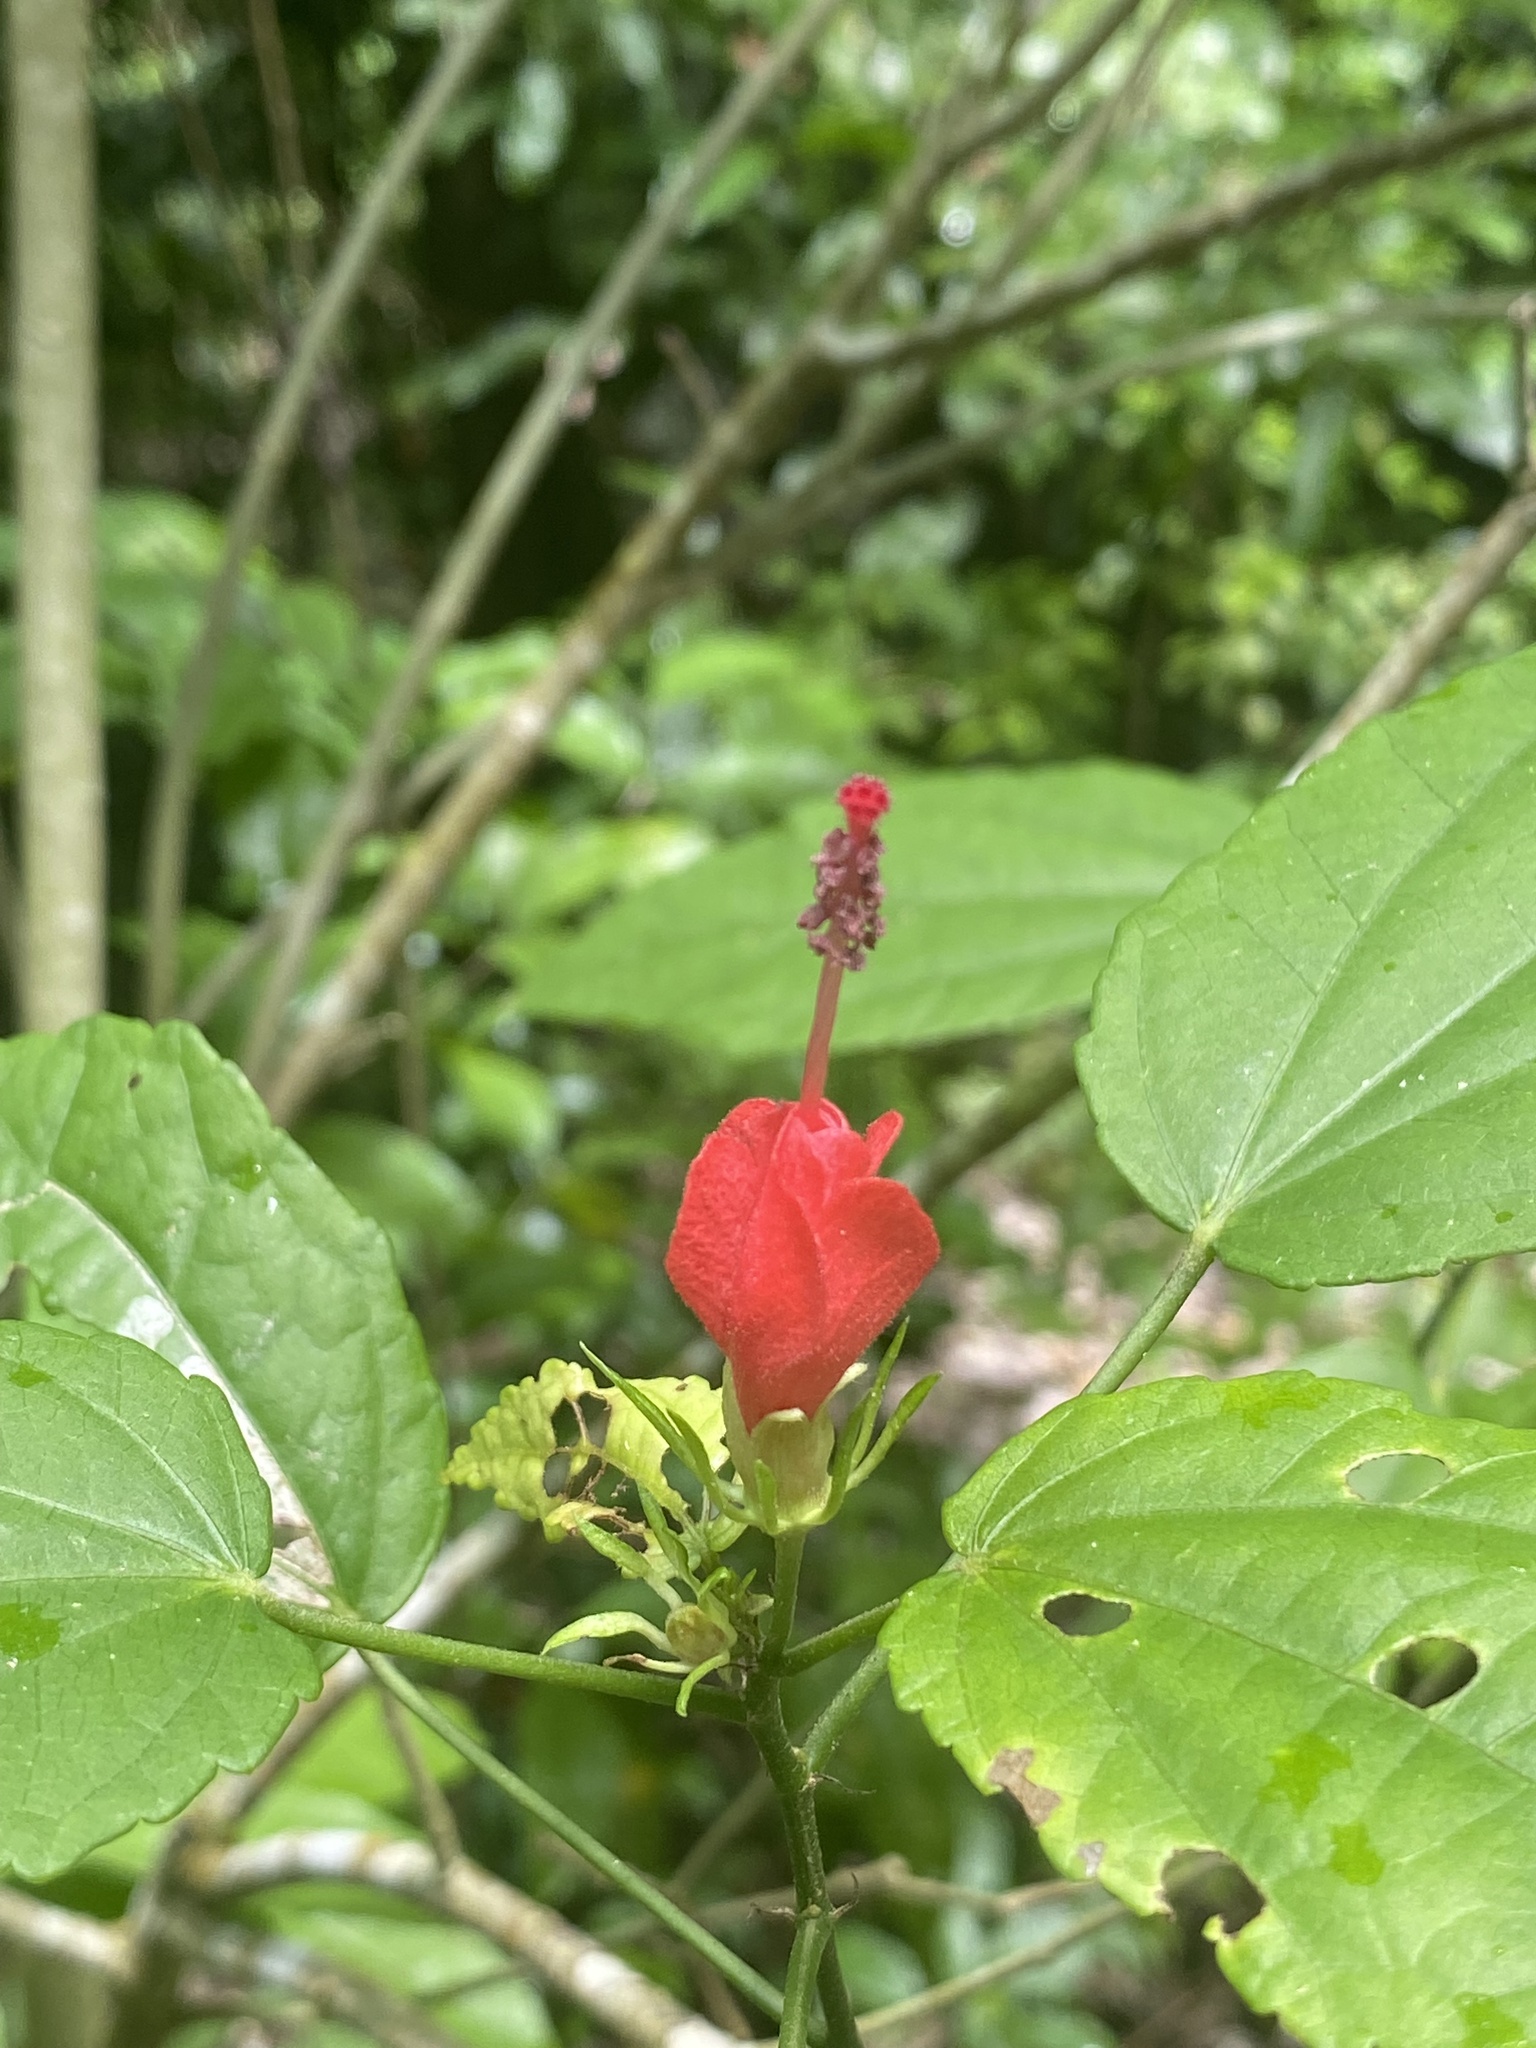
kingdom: Plantae
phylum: Tracheophyta
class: Magnoliopsida
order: Malvales
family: Malvaceae
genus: Malvaviscus
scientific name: Malvaviscus arboreus
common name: Wax mallow
